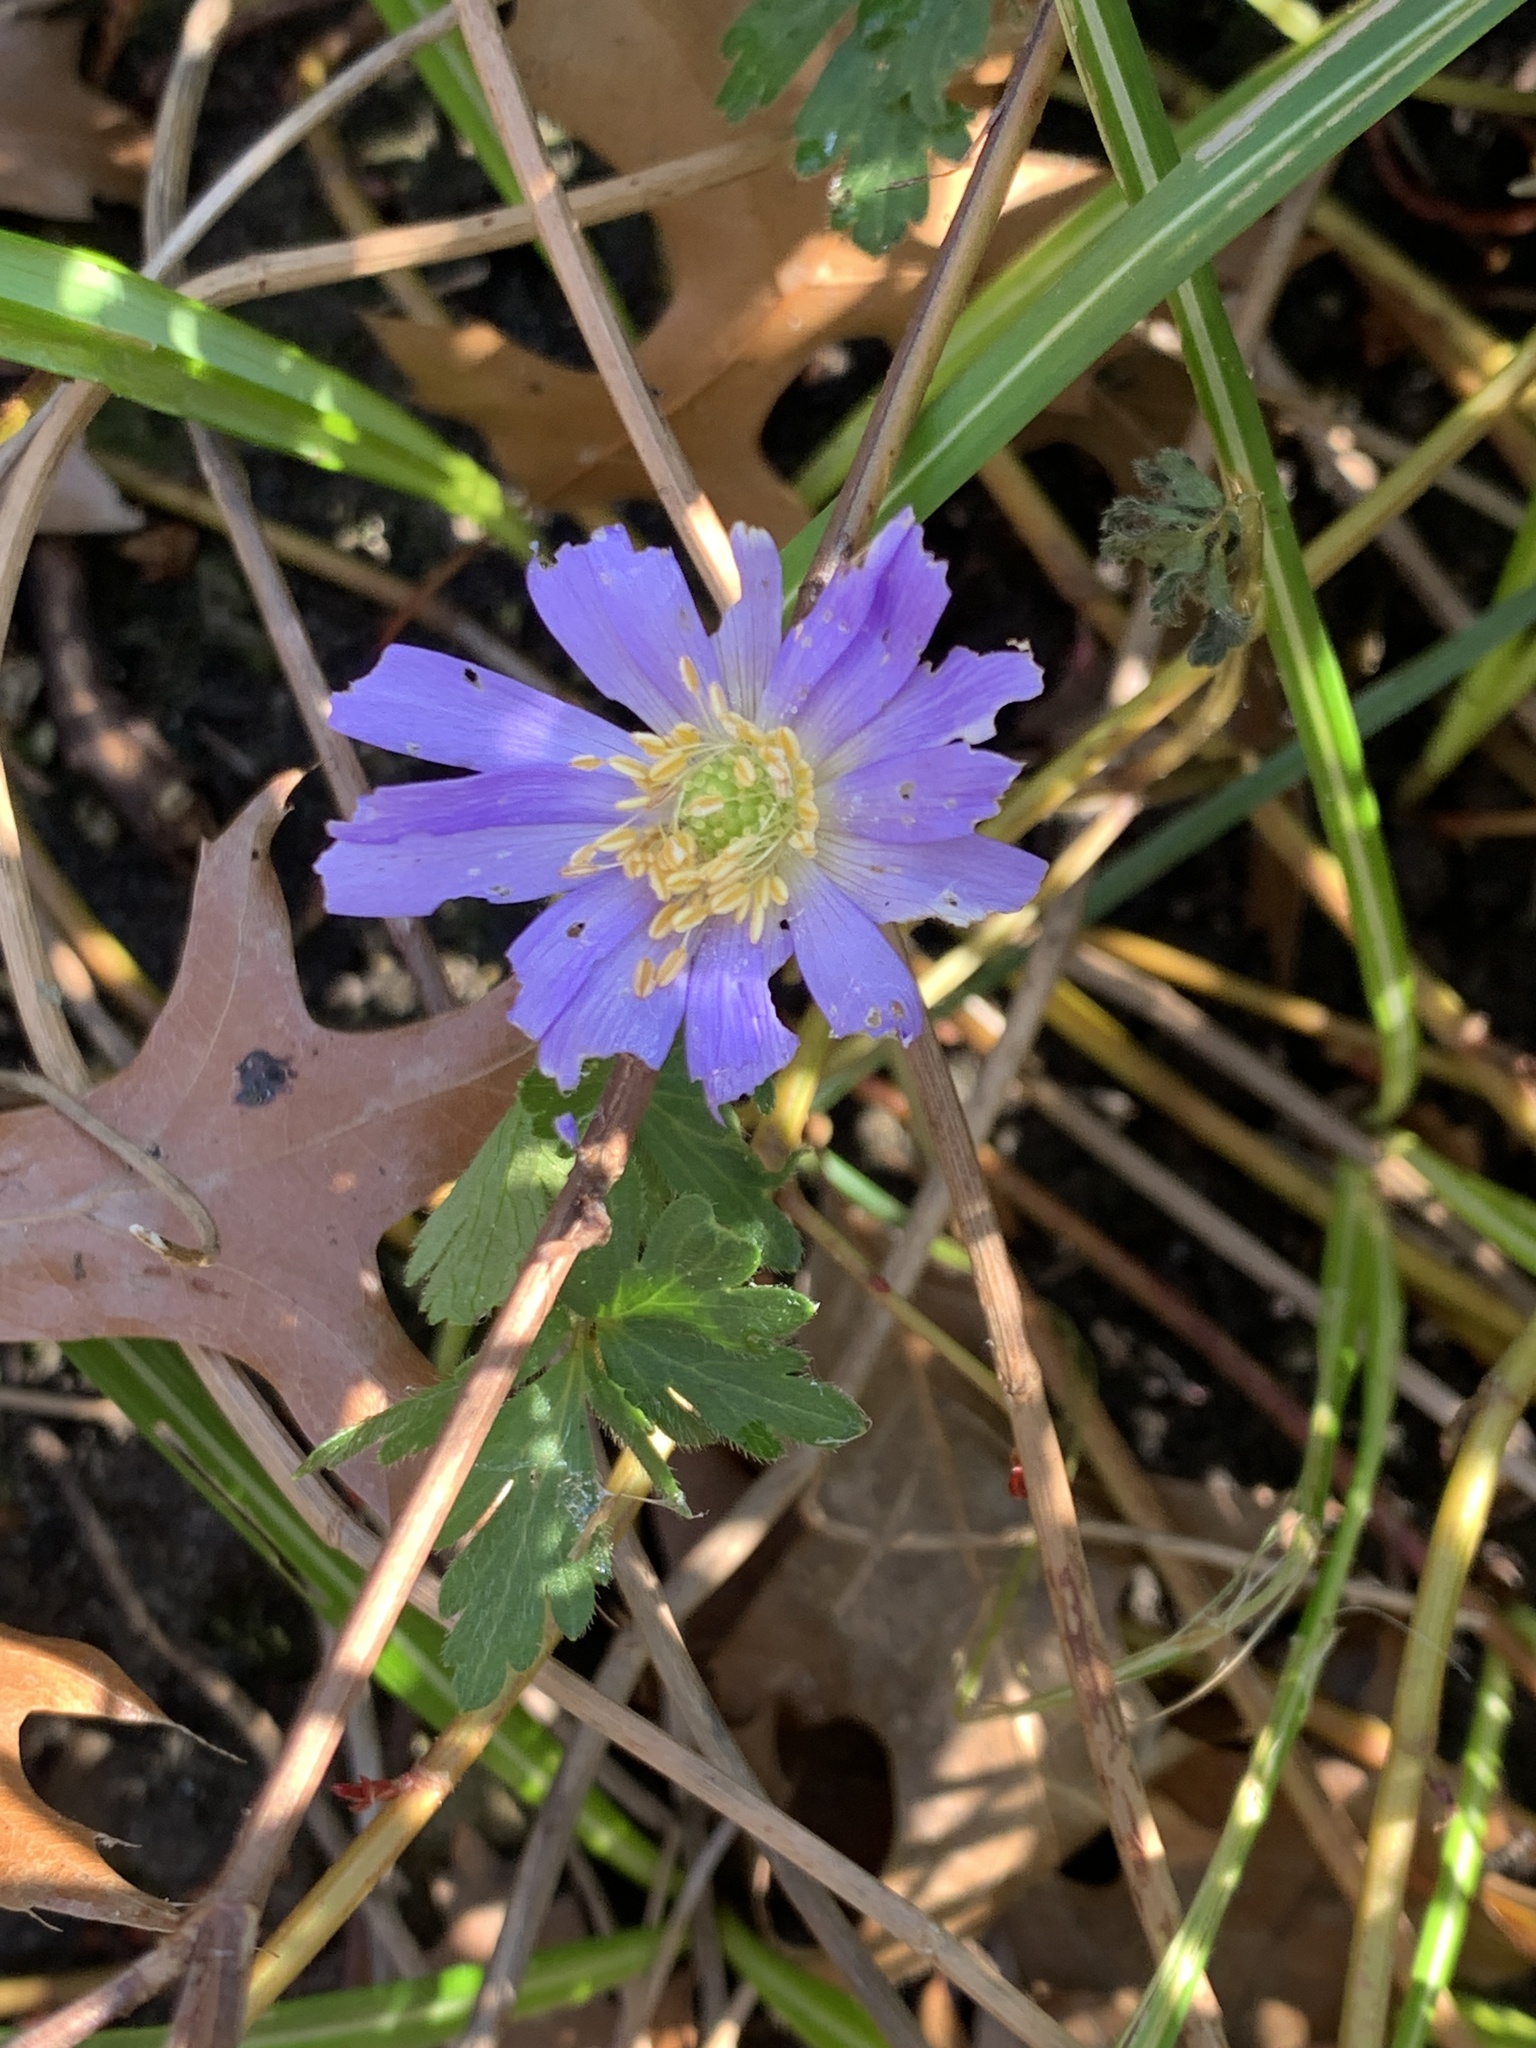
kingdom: Plantae
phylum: Tracheophyta
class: Magnoliopsida
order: Ranunculales
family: Ranunculaceae
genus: Anemone
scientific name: Anemone blanda
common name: Balkan anemone
